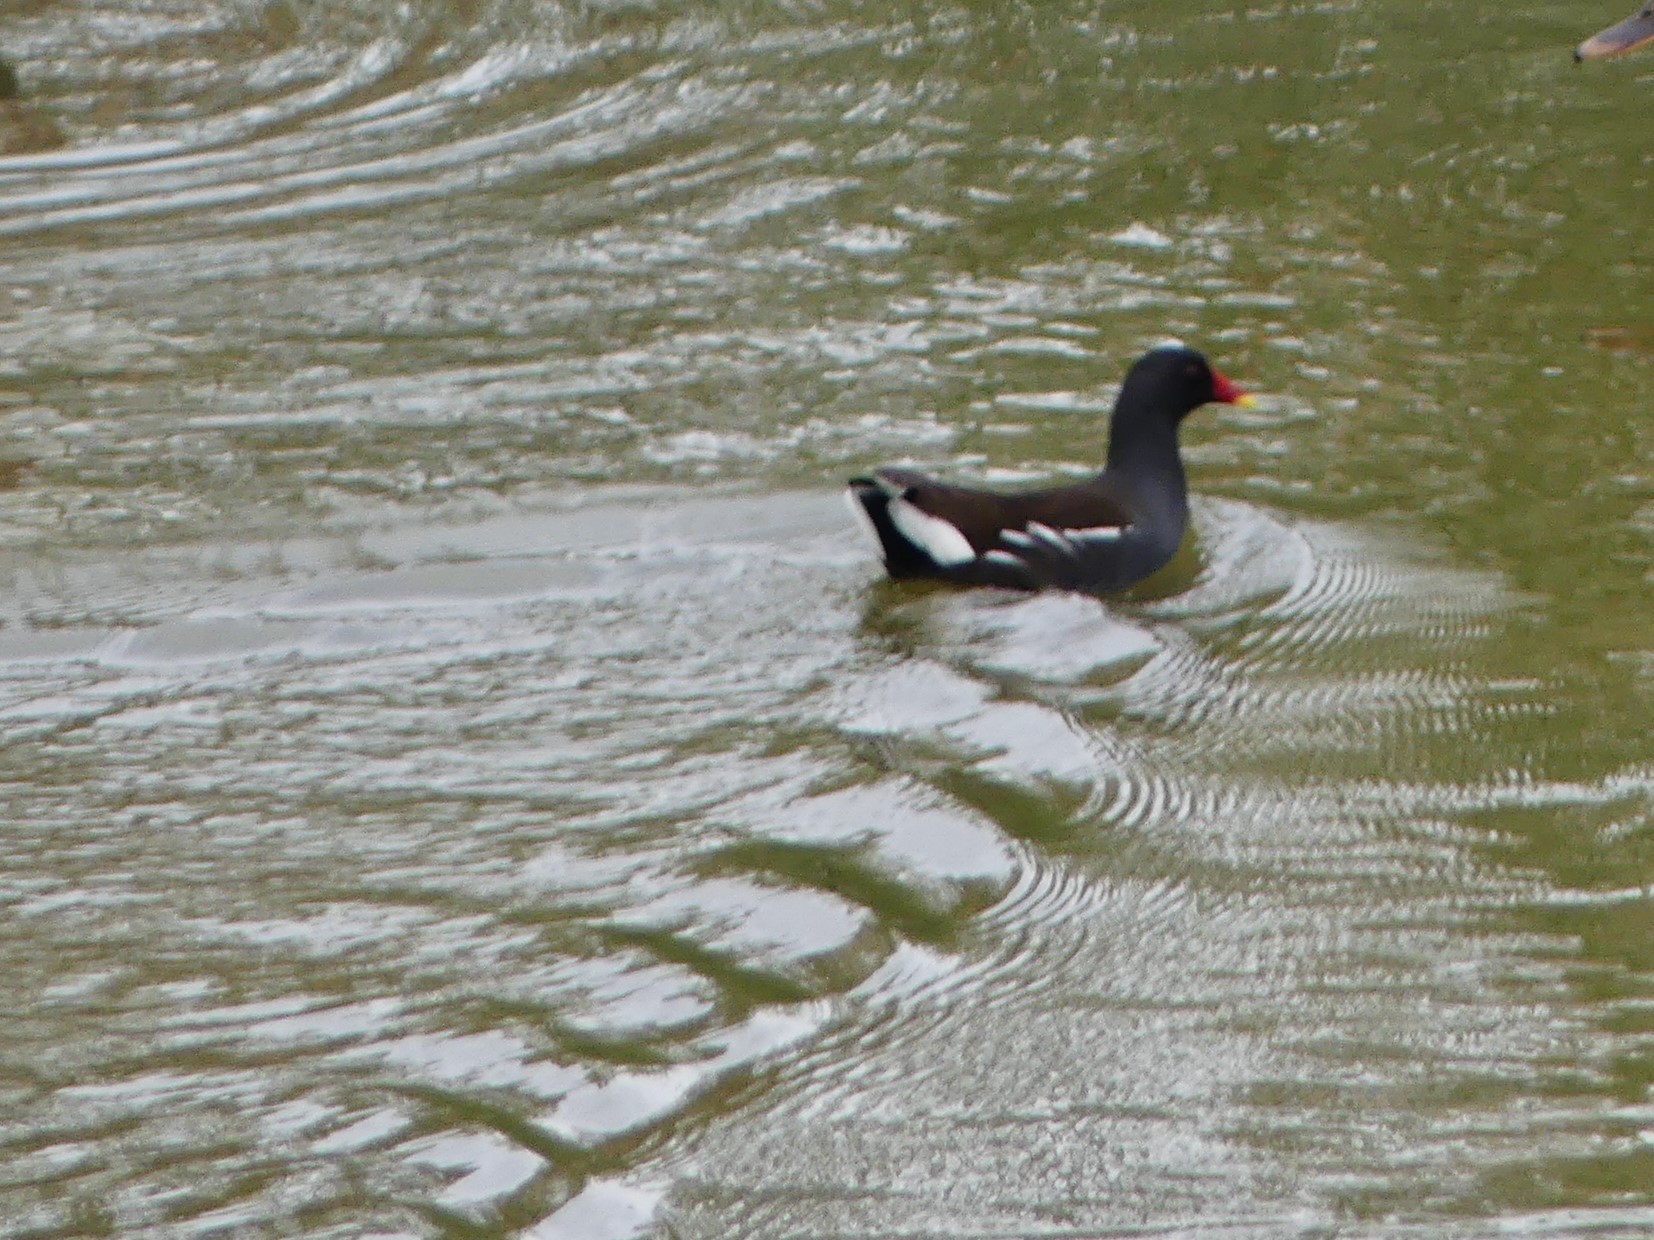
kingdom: Animalia
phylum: Chordata
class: Aves
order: Gruiformes
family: Rallidae
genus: Gallinula
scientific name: Gallinula chloropus
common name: Common moorhen
